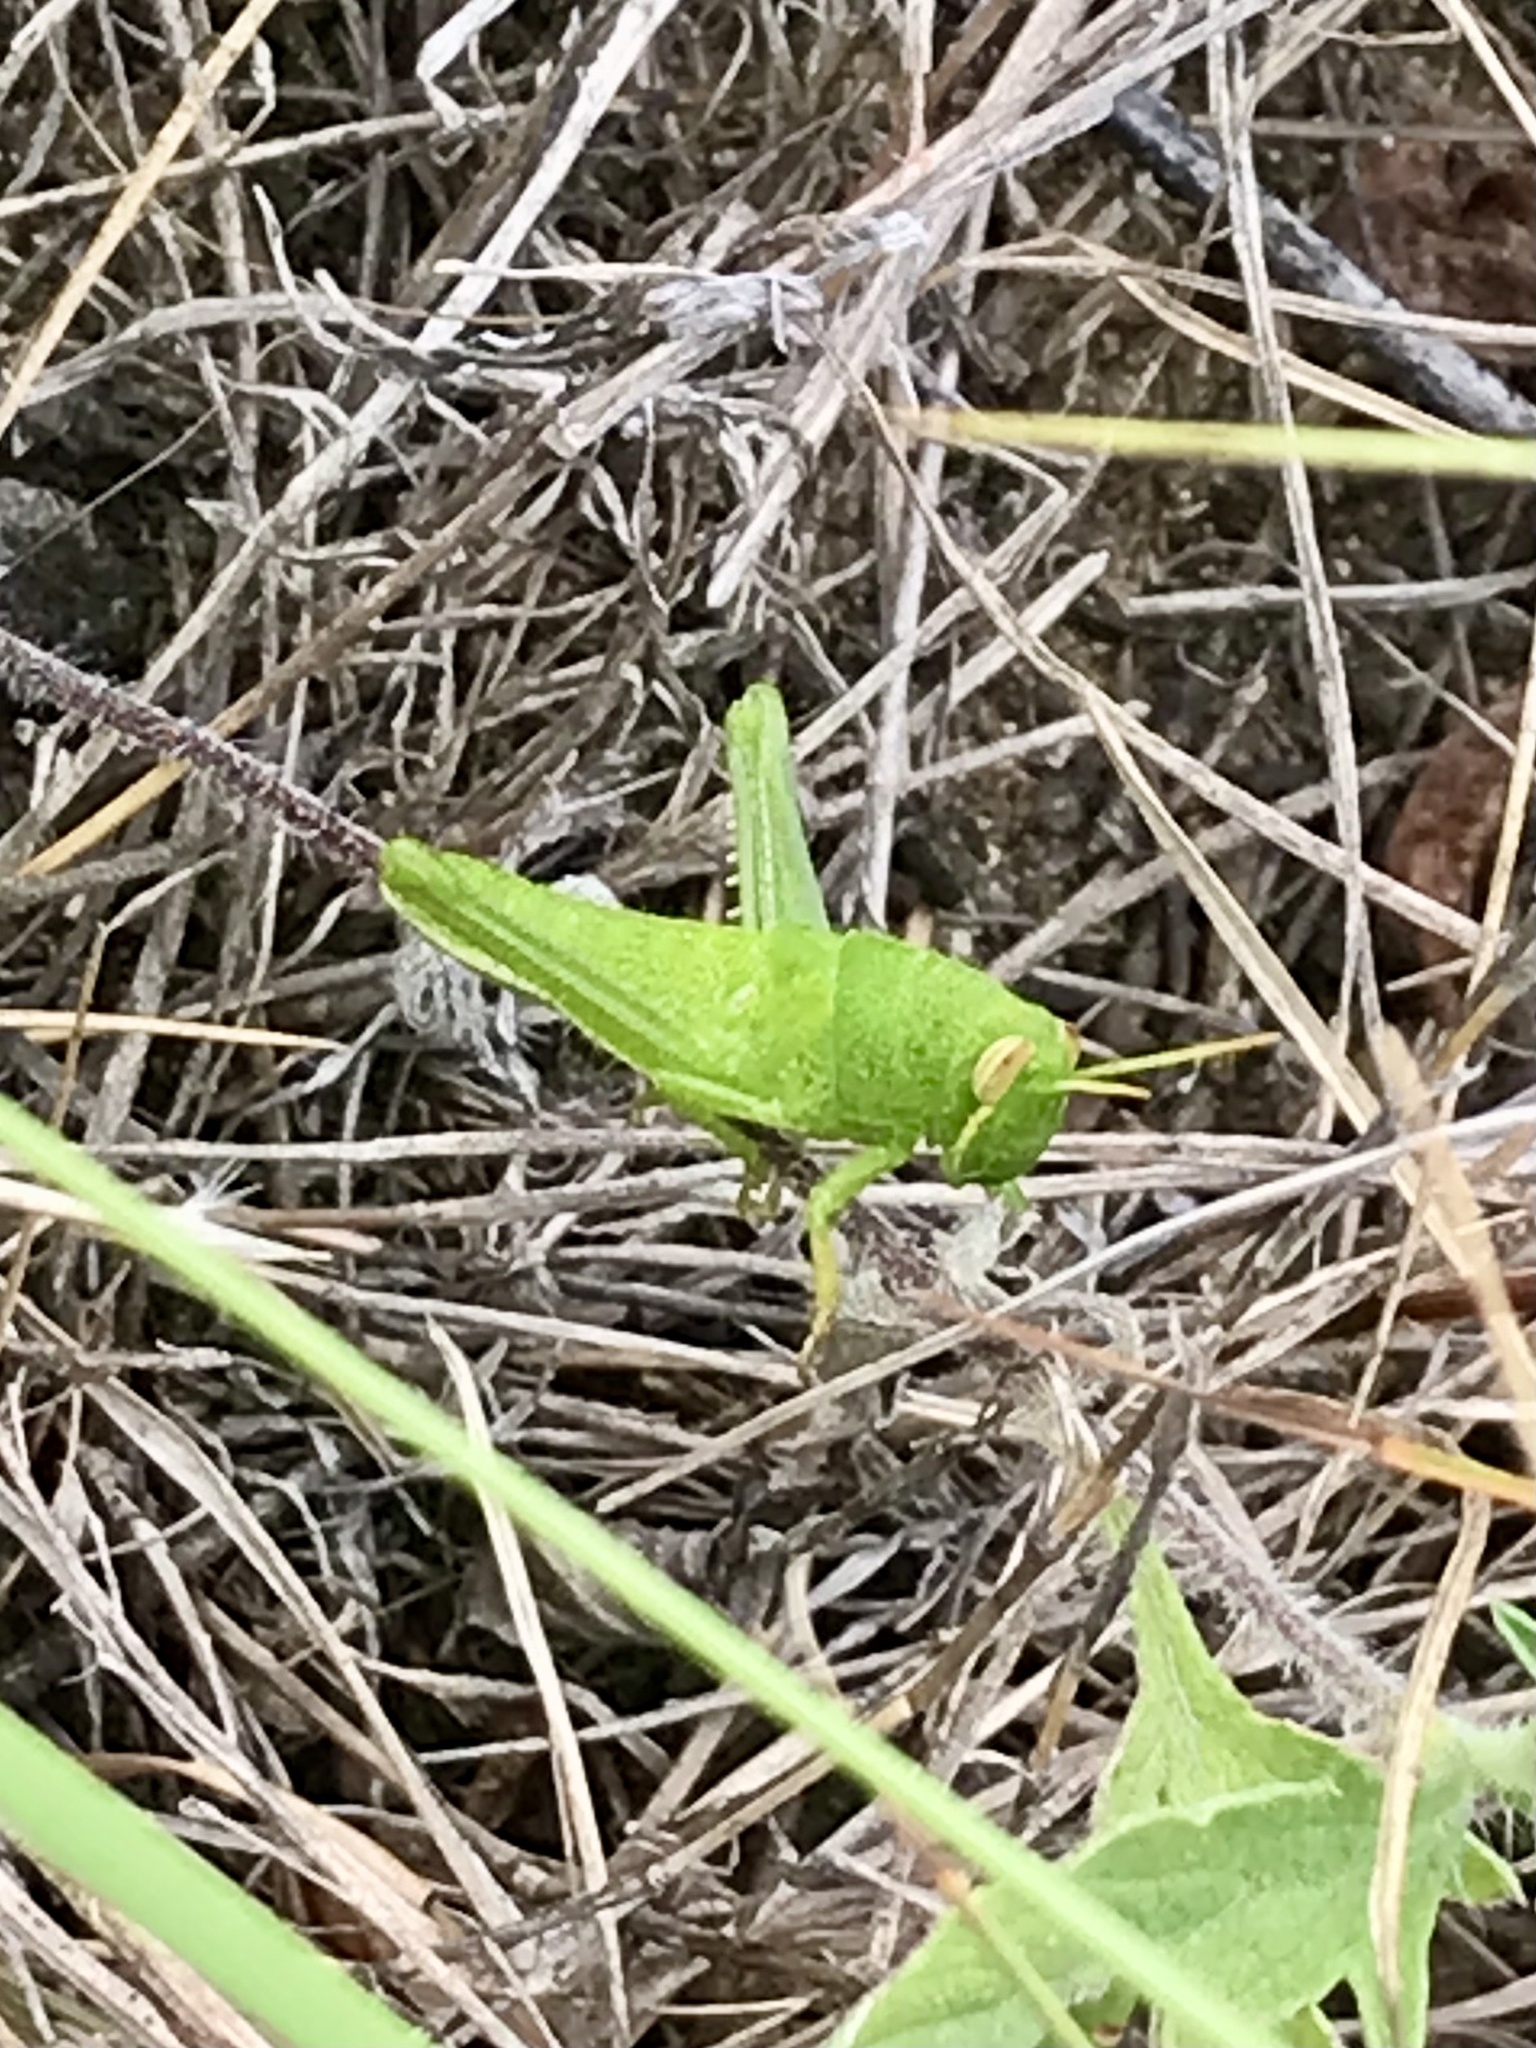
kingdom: Animalia
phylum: Arthropoda
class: Insecta
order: Orthoptera
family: Acrididae
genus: Schistocerca
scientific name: Schistocerca lineata
